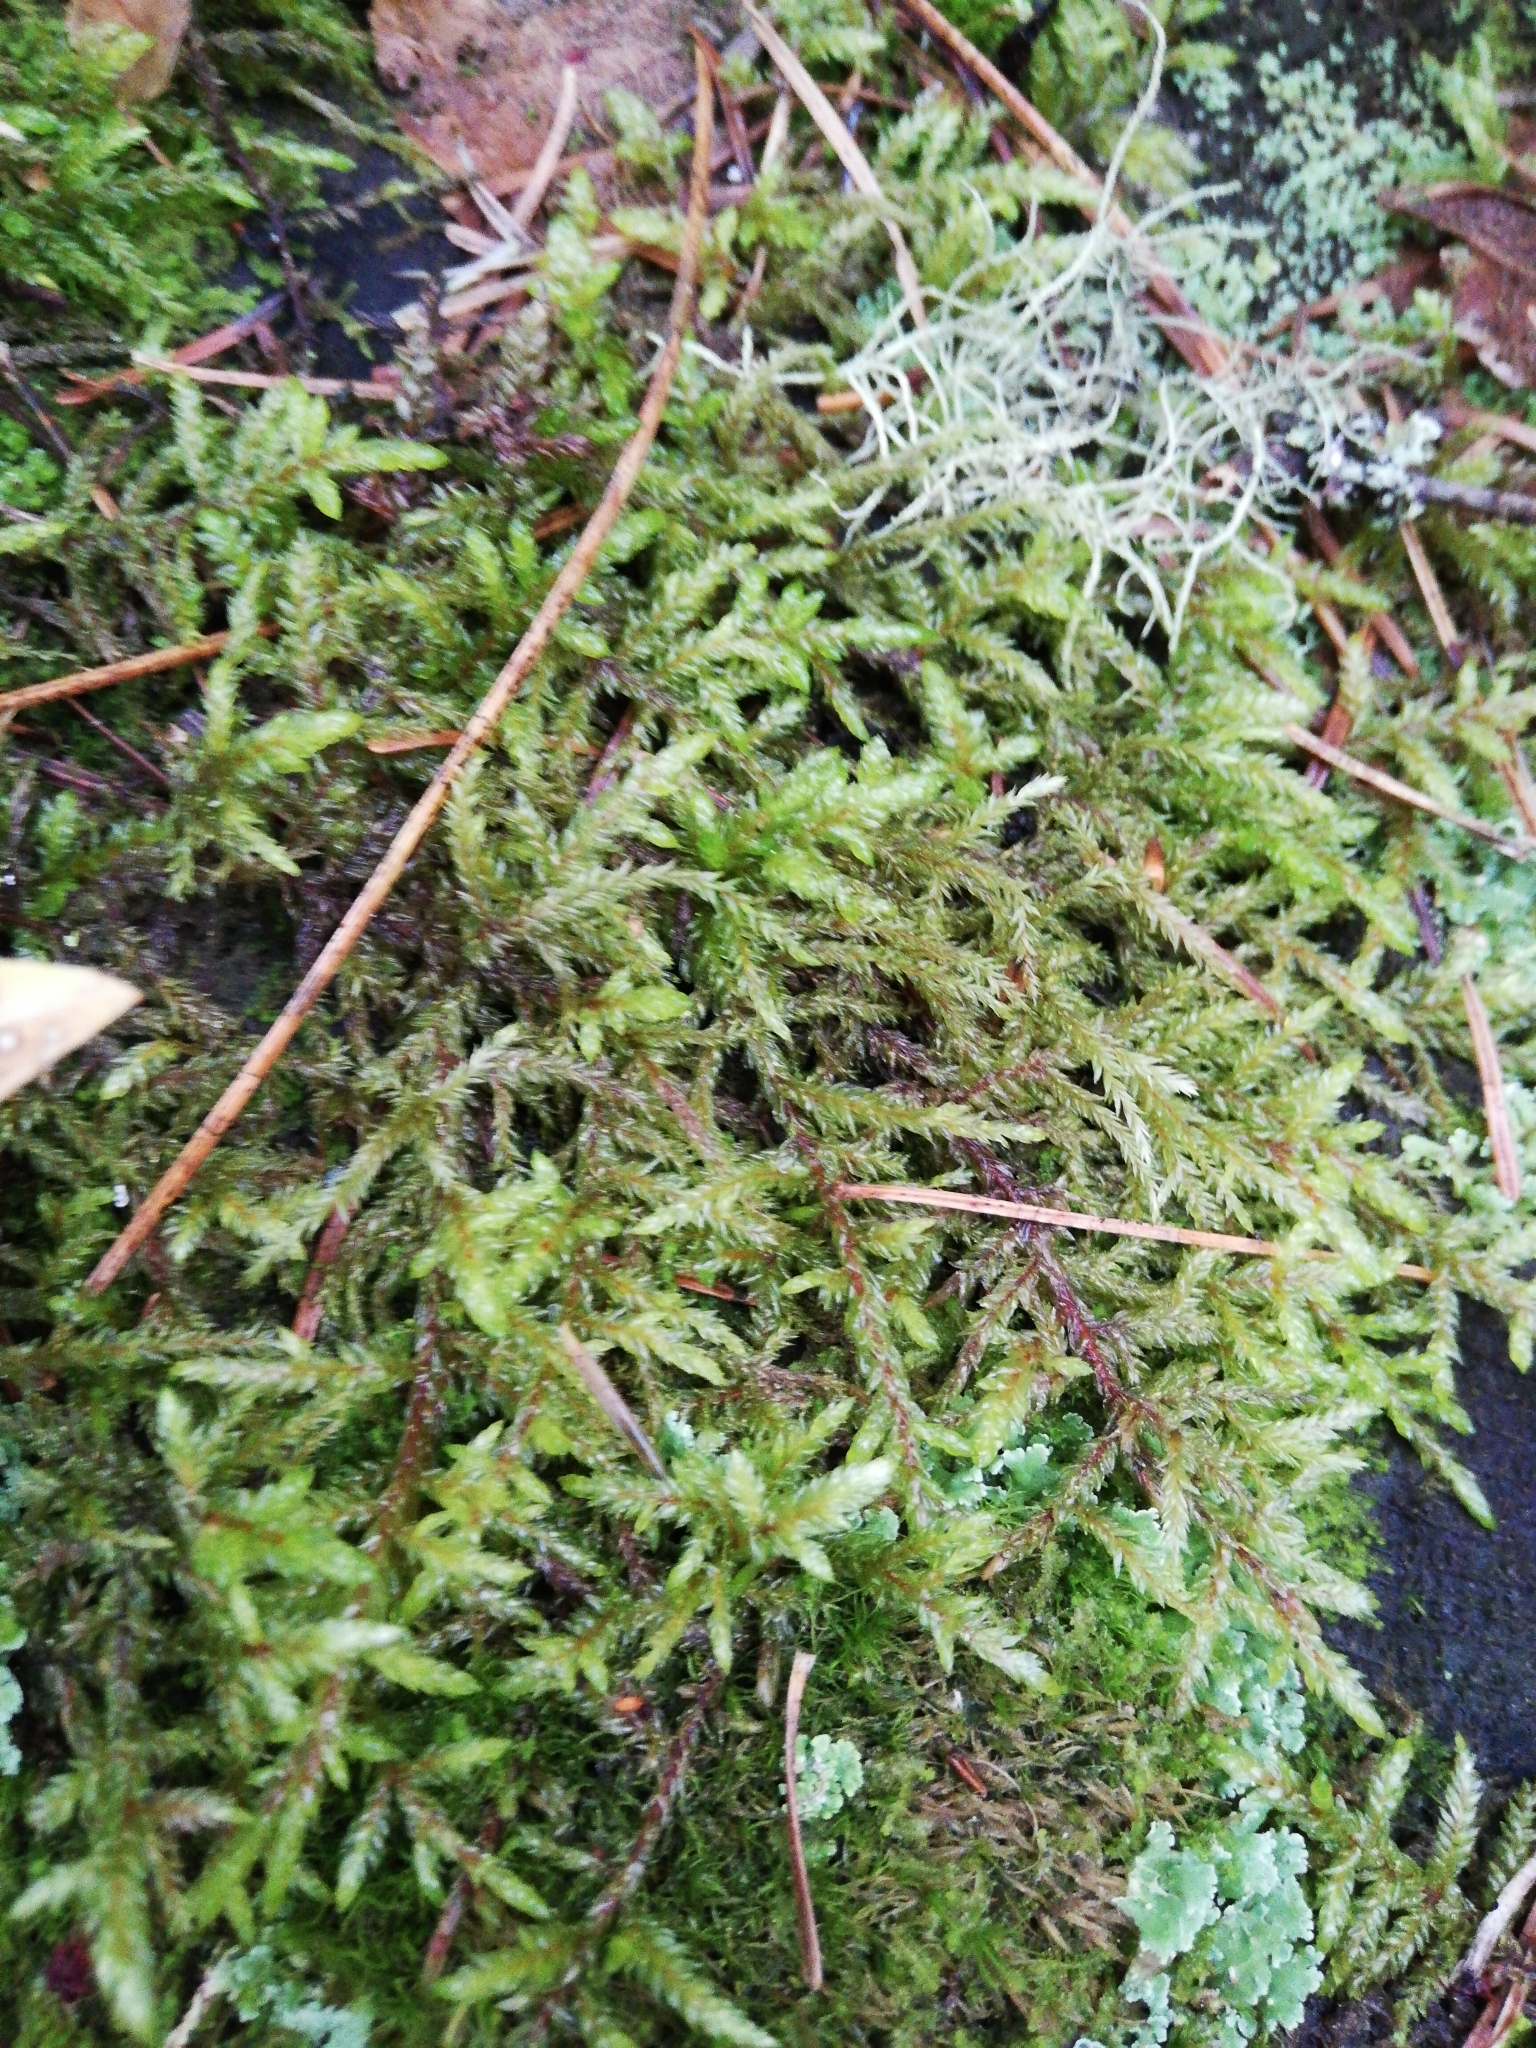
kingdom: Plantae
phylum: Bryophyta
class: Bryopsida
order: Hypnales
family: Hylocomiaceae
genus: Pleurozium
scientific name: Pleurozium schreberi
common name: Red-stemmed feather moss
